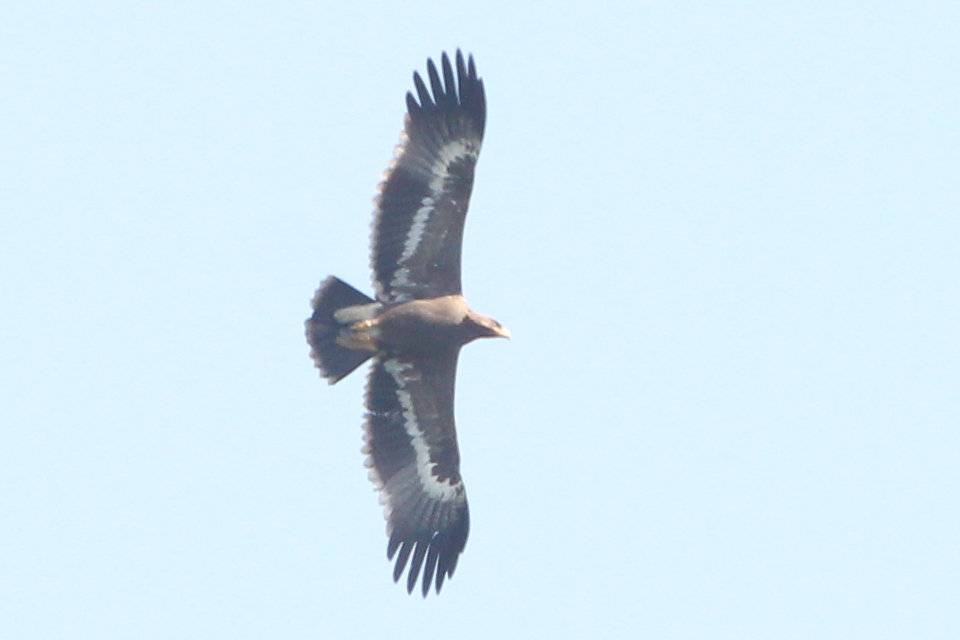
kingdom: Animalia
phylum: Chordata
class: Aves
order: Accipitriformes
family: Accipitridae
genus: Aquila
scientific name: Aquila nipalensis
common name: Steppe eagle
